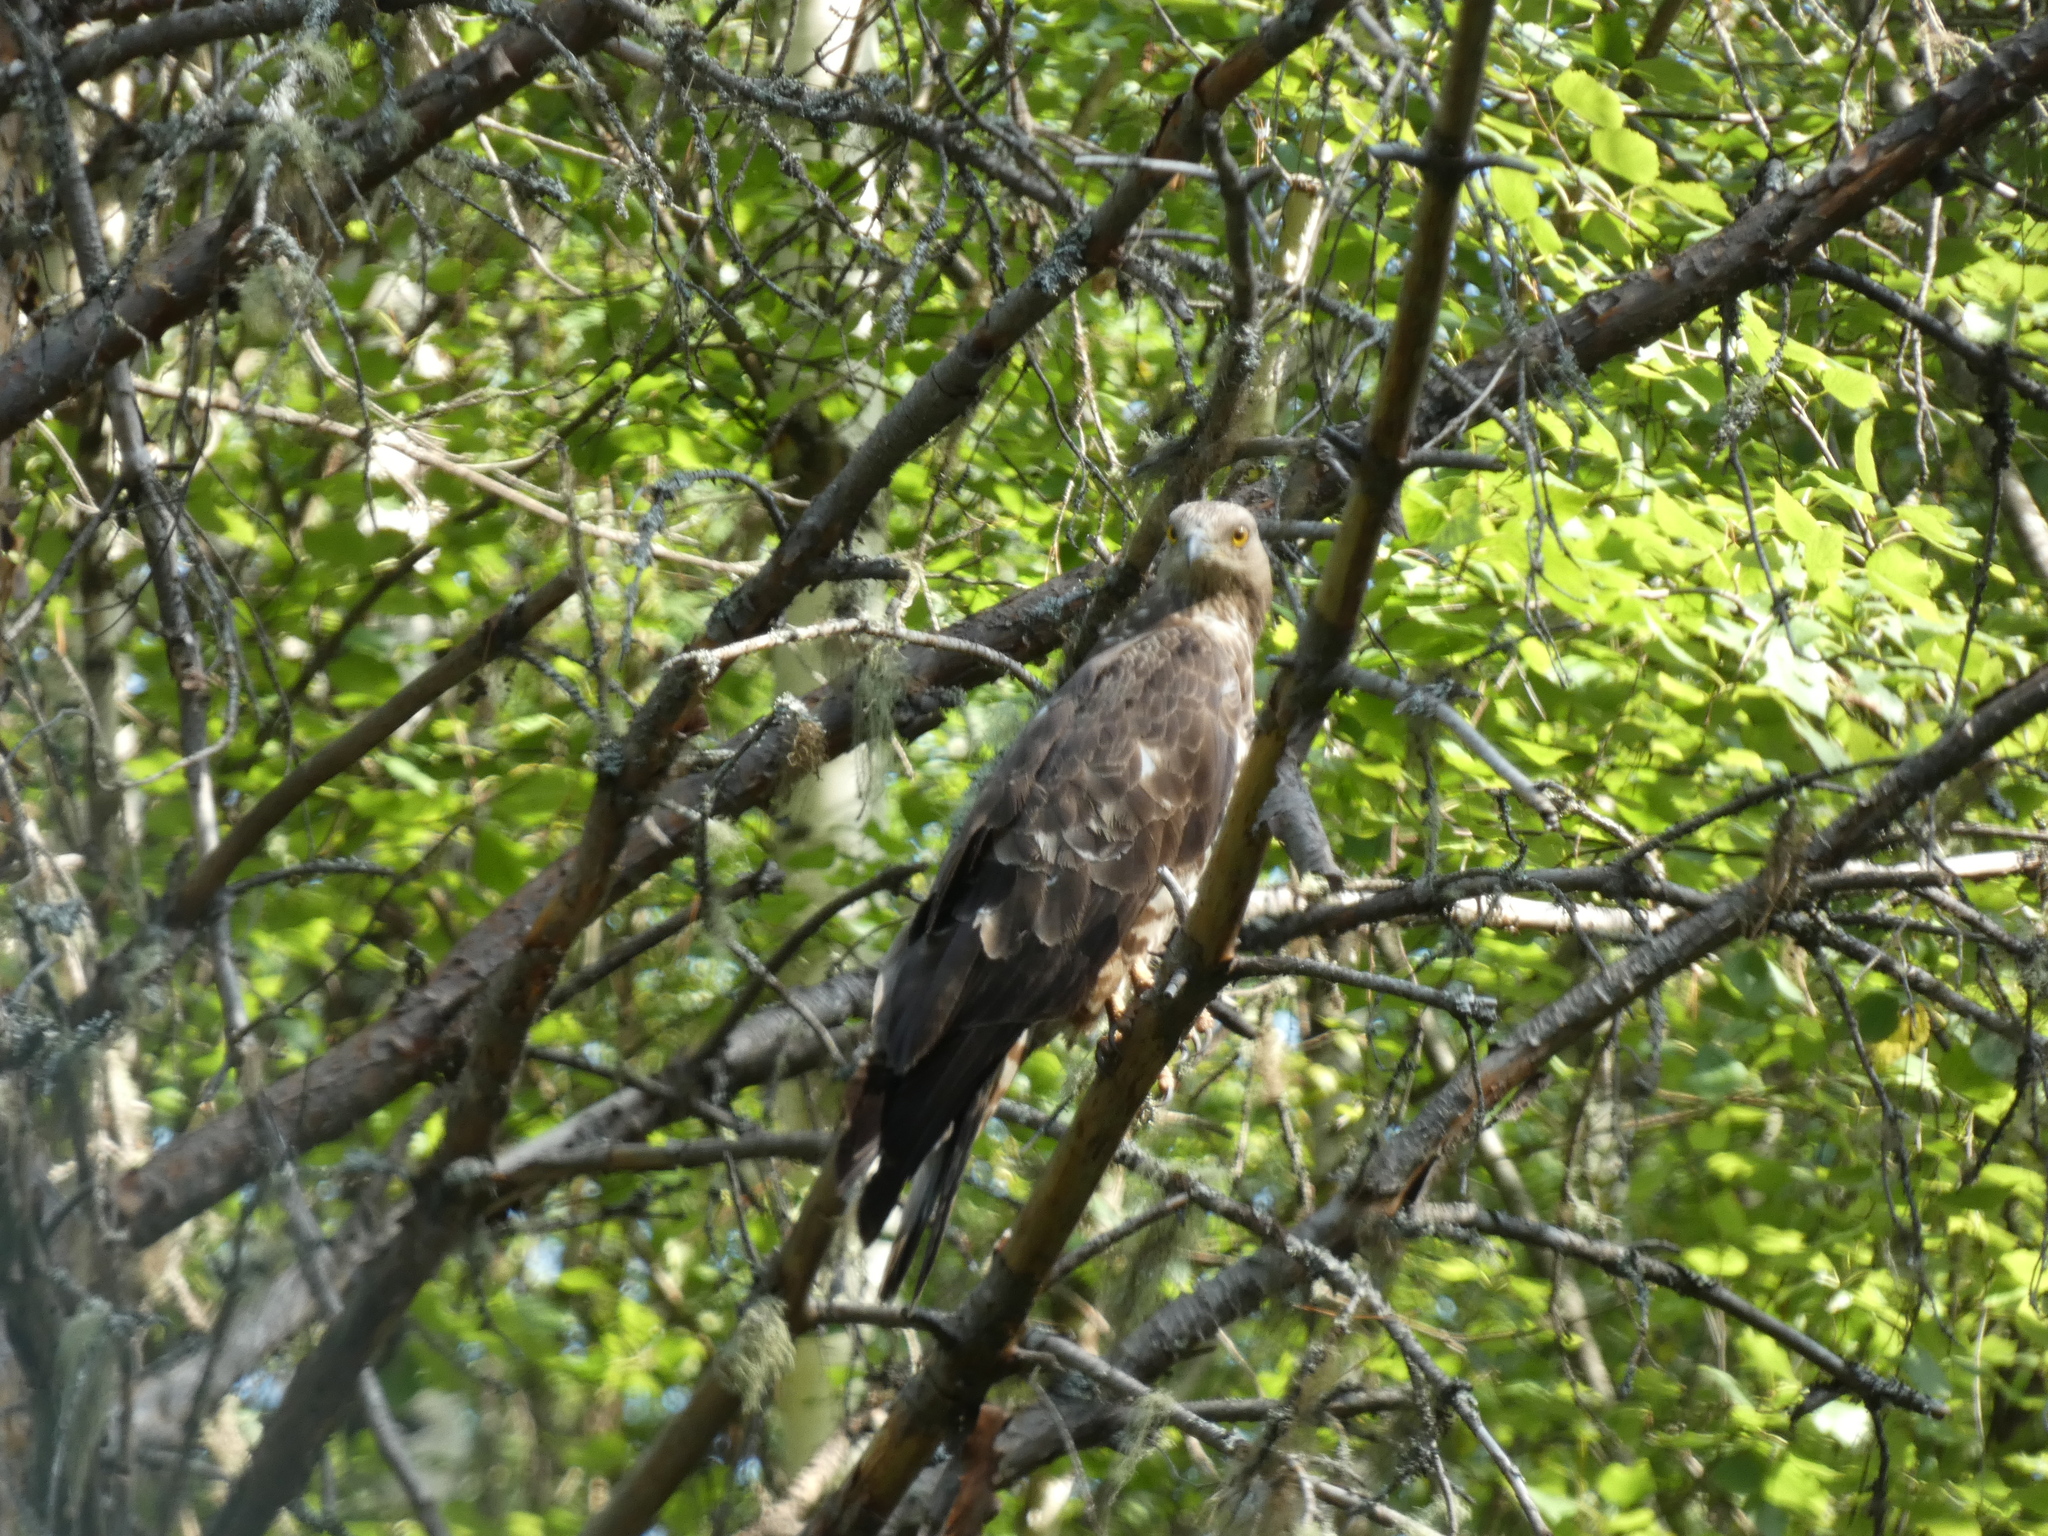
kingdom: Animalia
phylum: Chordata
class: Aves
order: Accipitriformes
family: Accipitridae
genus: Pernis
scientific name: Pernis apivorus
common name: European honey buzzard
